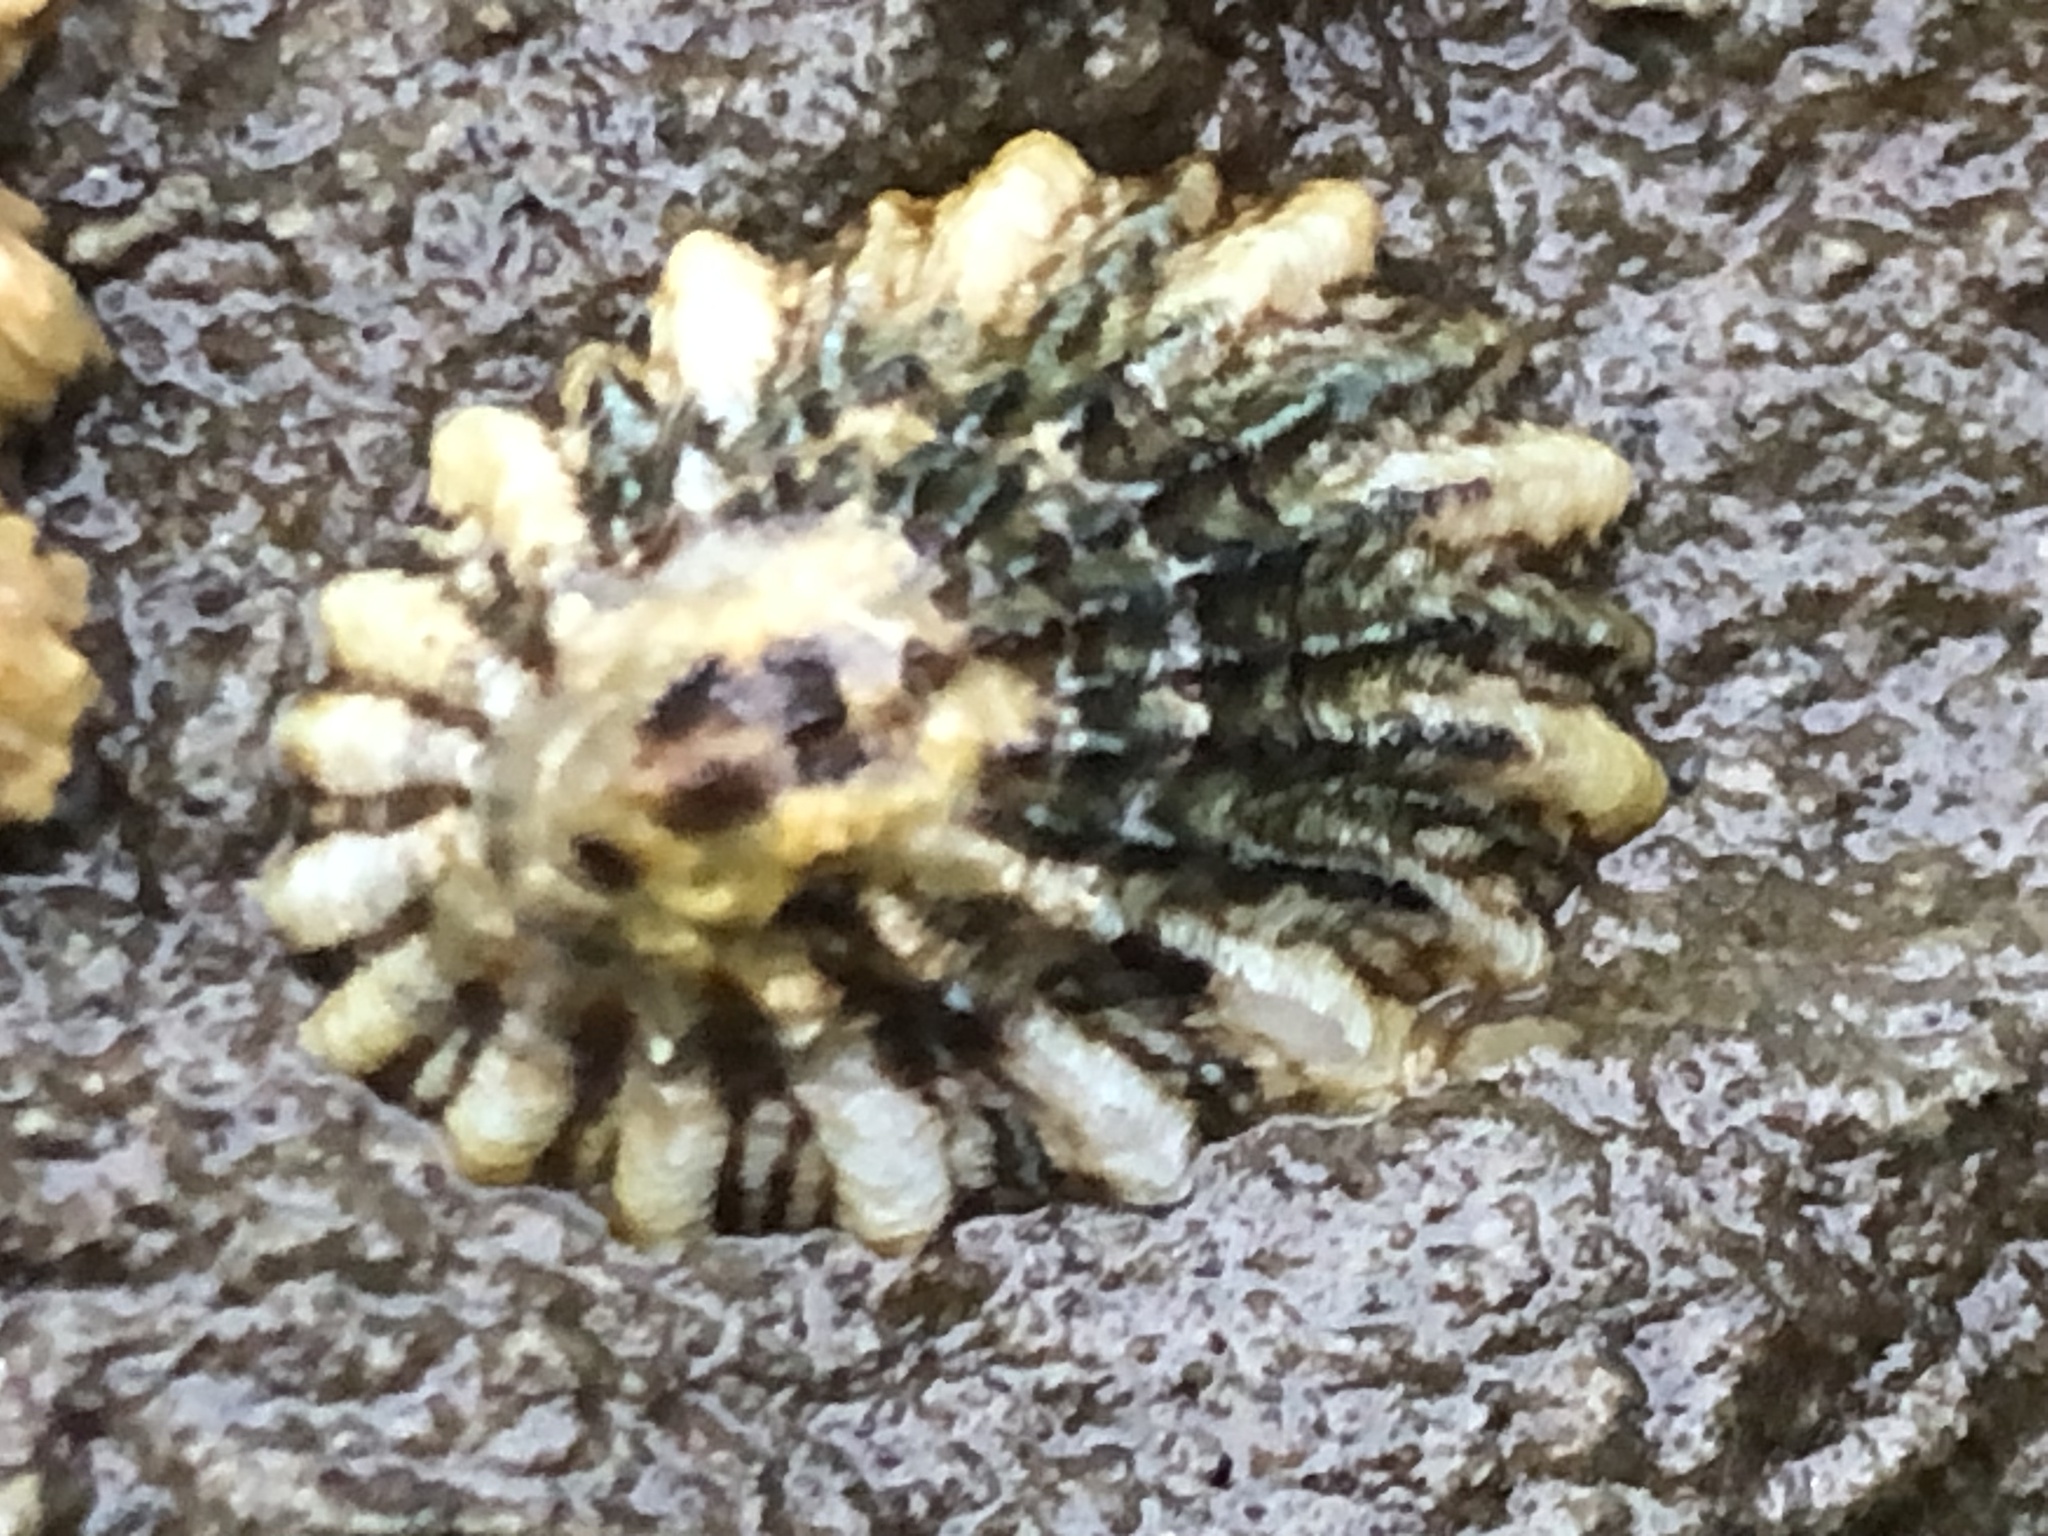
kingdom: Animalia
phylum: Mollusca
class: Gastropoda
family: Lottiidae
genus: Lottia
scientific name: Lottia scabra
